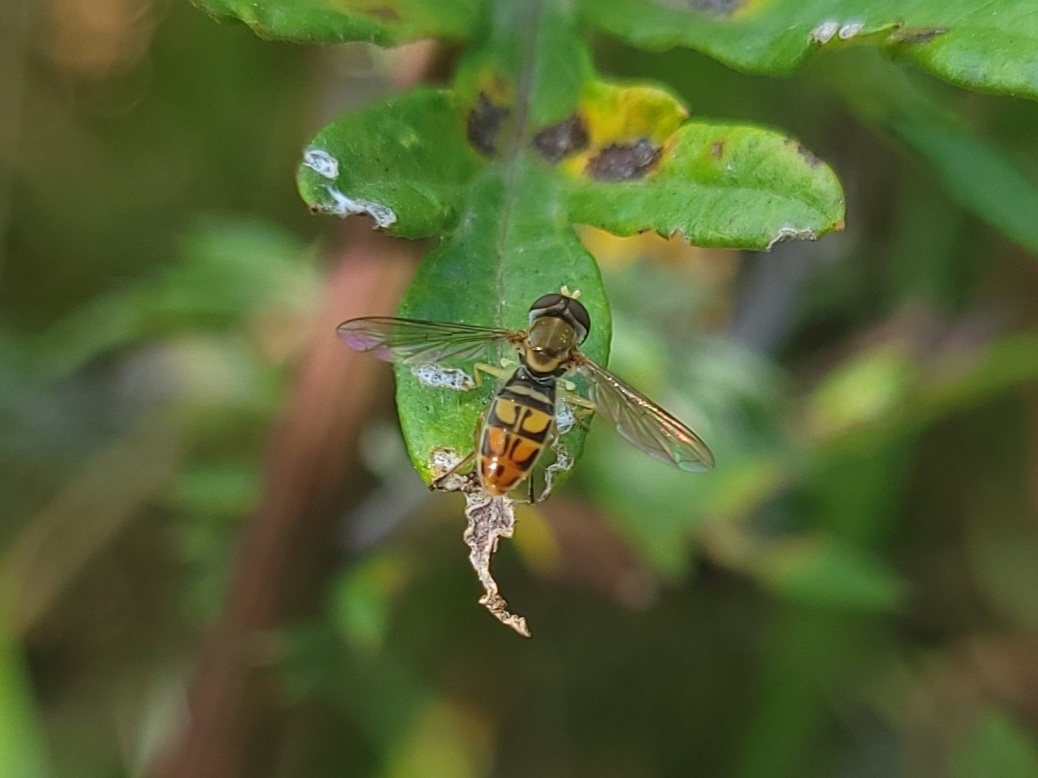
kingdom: Animalia
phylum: Arthropoda
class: Insecta
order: Diptera
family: Syrphidae
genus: Toxomerus
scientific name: Toxomerus marginatus
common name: Syrphid fly
